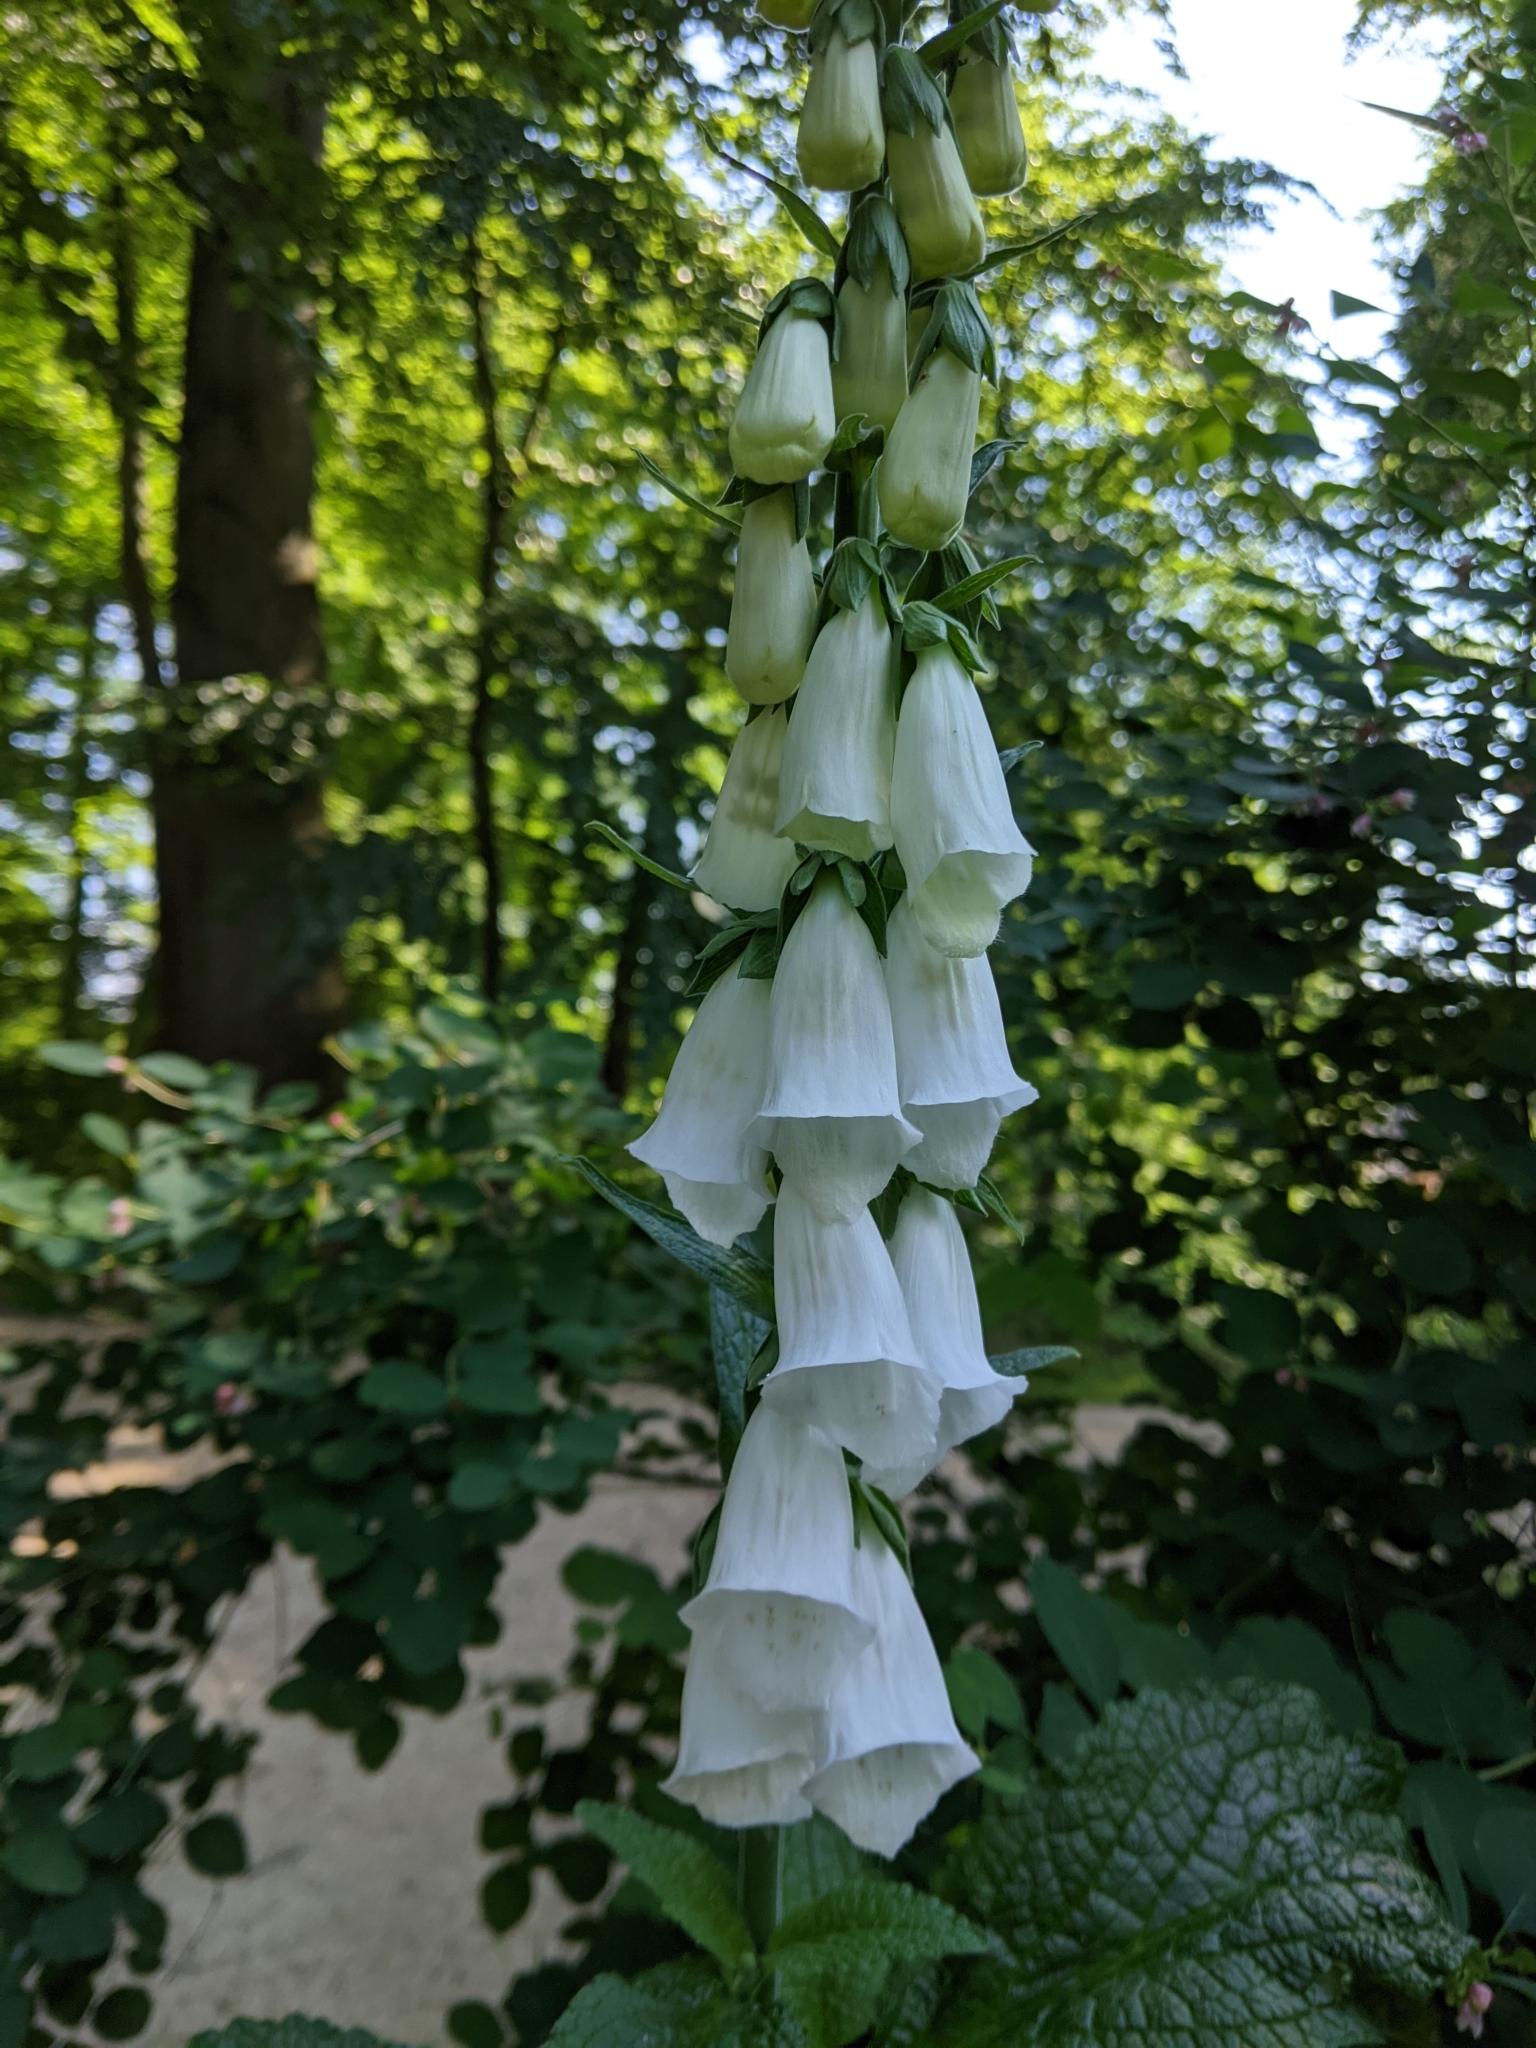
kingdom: Plantae
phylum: Tracheophyta
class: Magnoliopsida
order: Lamiales
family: Plantaginaceae
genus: Digitalis
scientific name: Digitalis purpurea
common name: Foxglove
